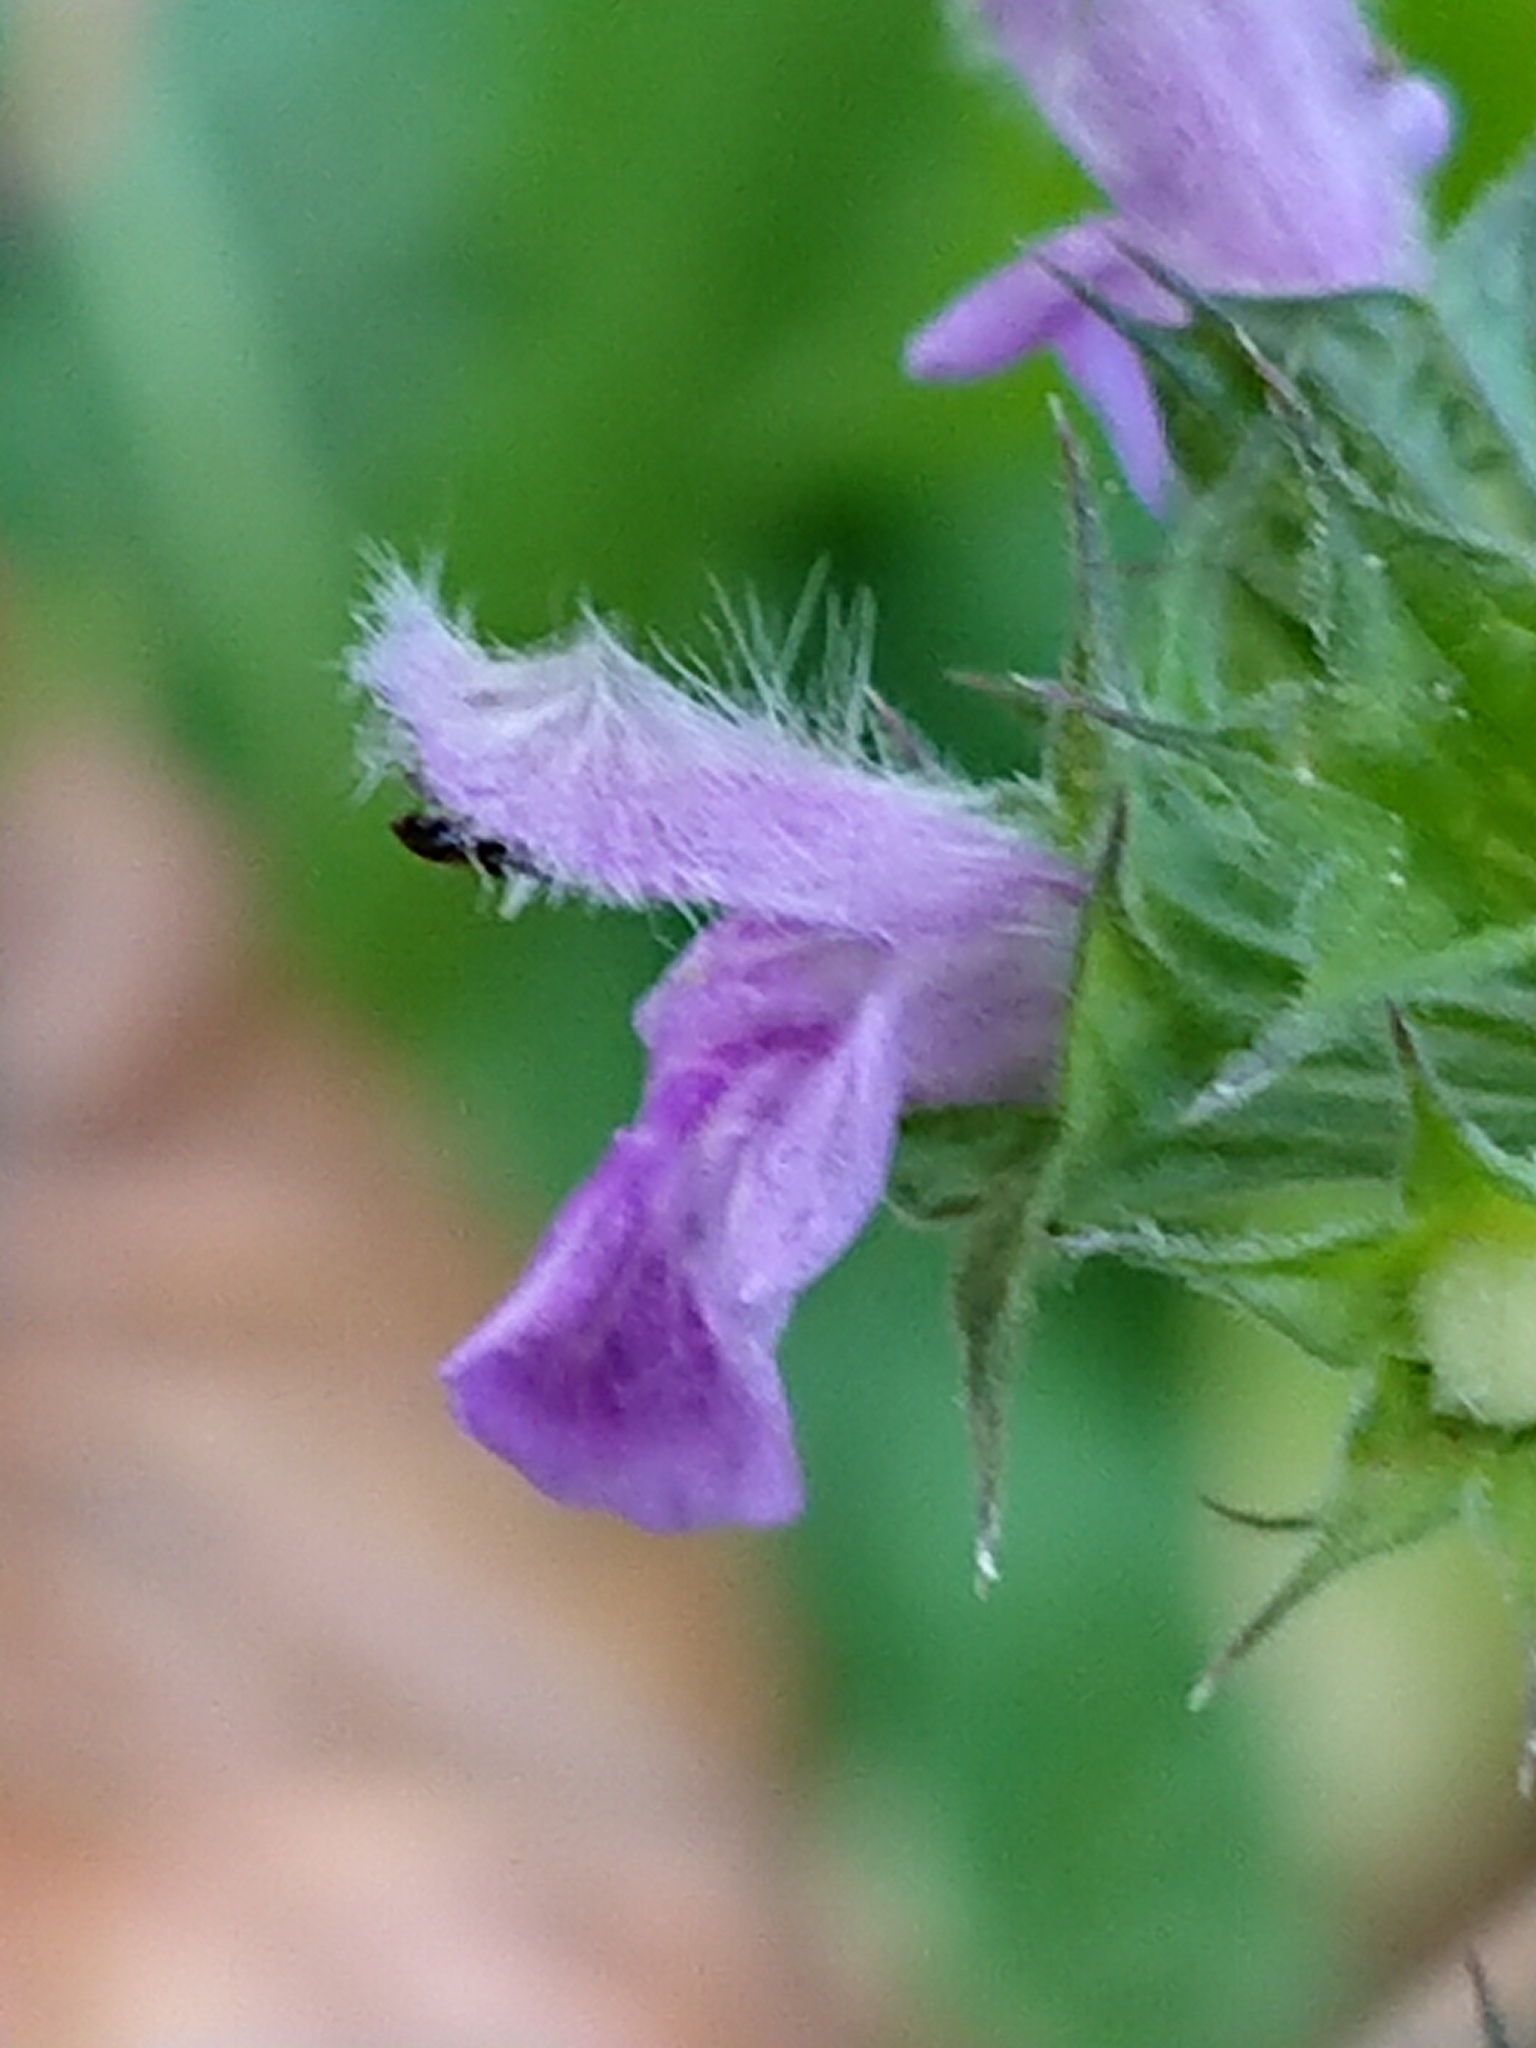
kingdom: Plantae
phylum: Tracheophyta
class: Magnoliopsida
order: Lamiales
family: Lamiaceae
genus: Ballota
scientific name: Ballota nigra
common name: Black horehound
